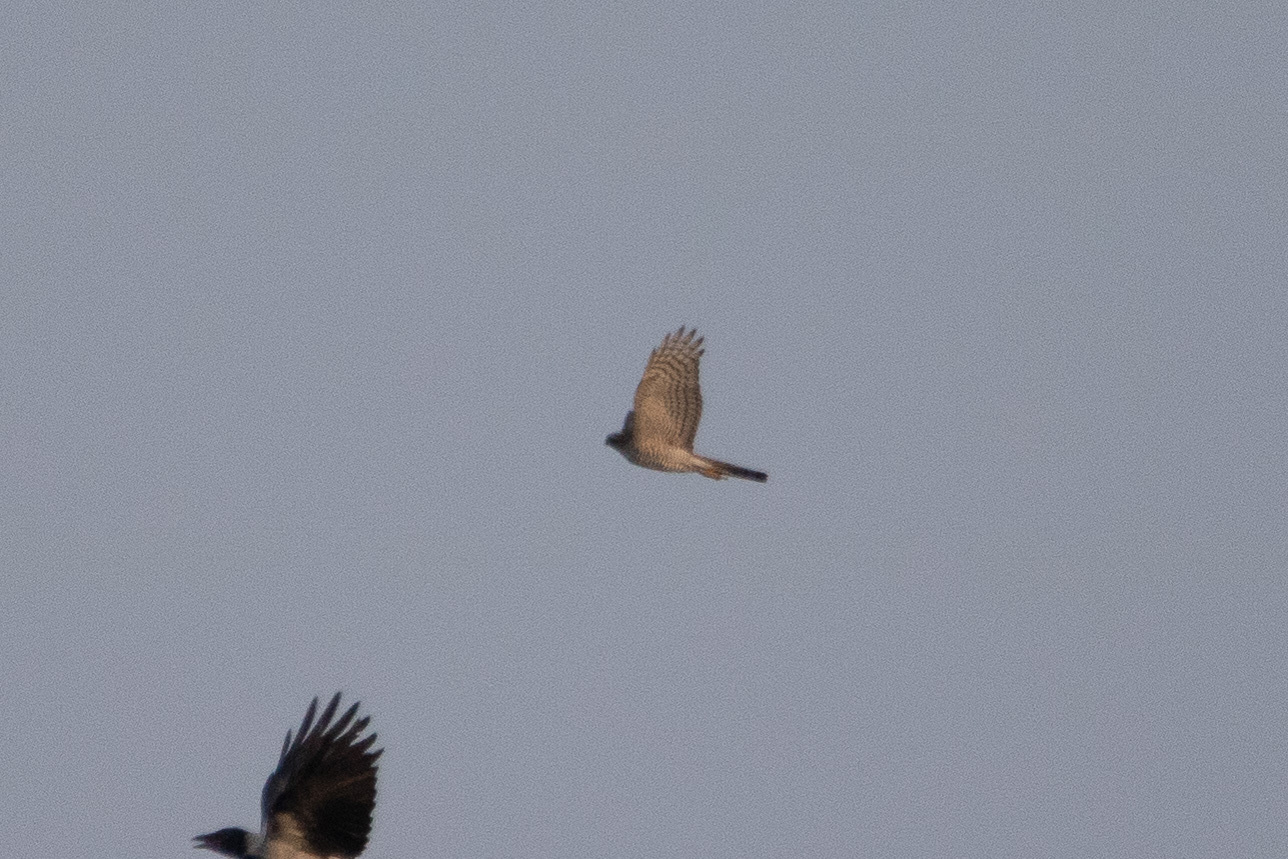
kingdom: Animalia
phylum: Chordata
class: Aves
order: Accipitriformes
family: Accipitridae
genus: Accipiter
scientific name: Accipiter nisus
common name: Eurasian sparrowhawk
